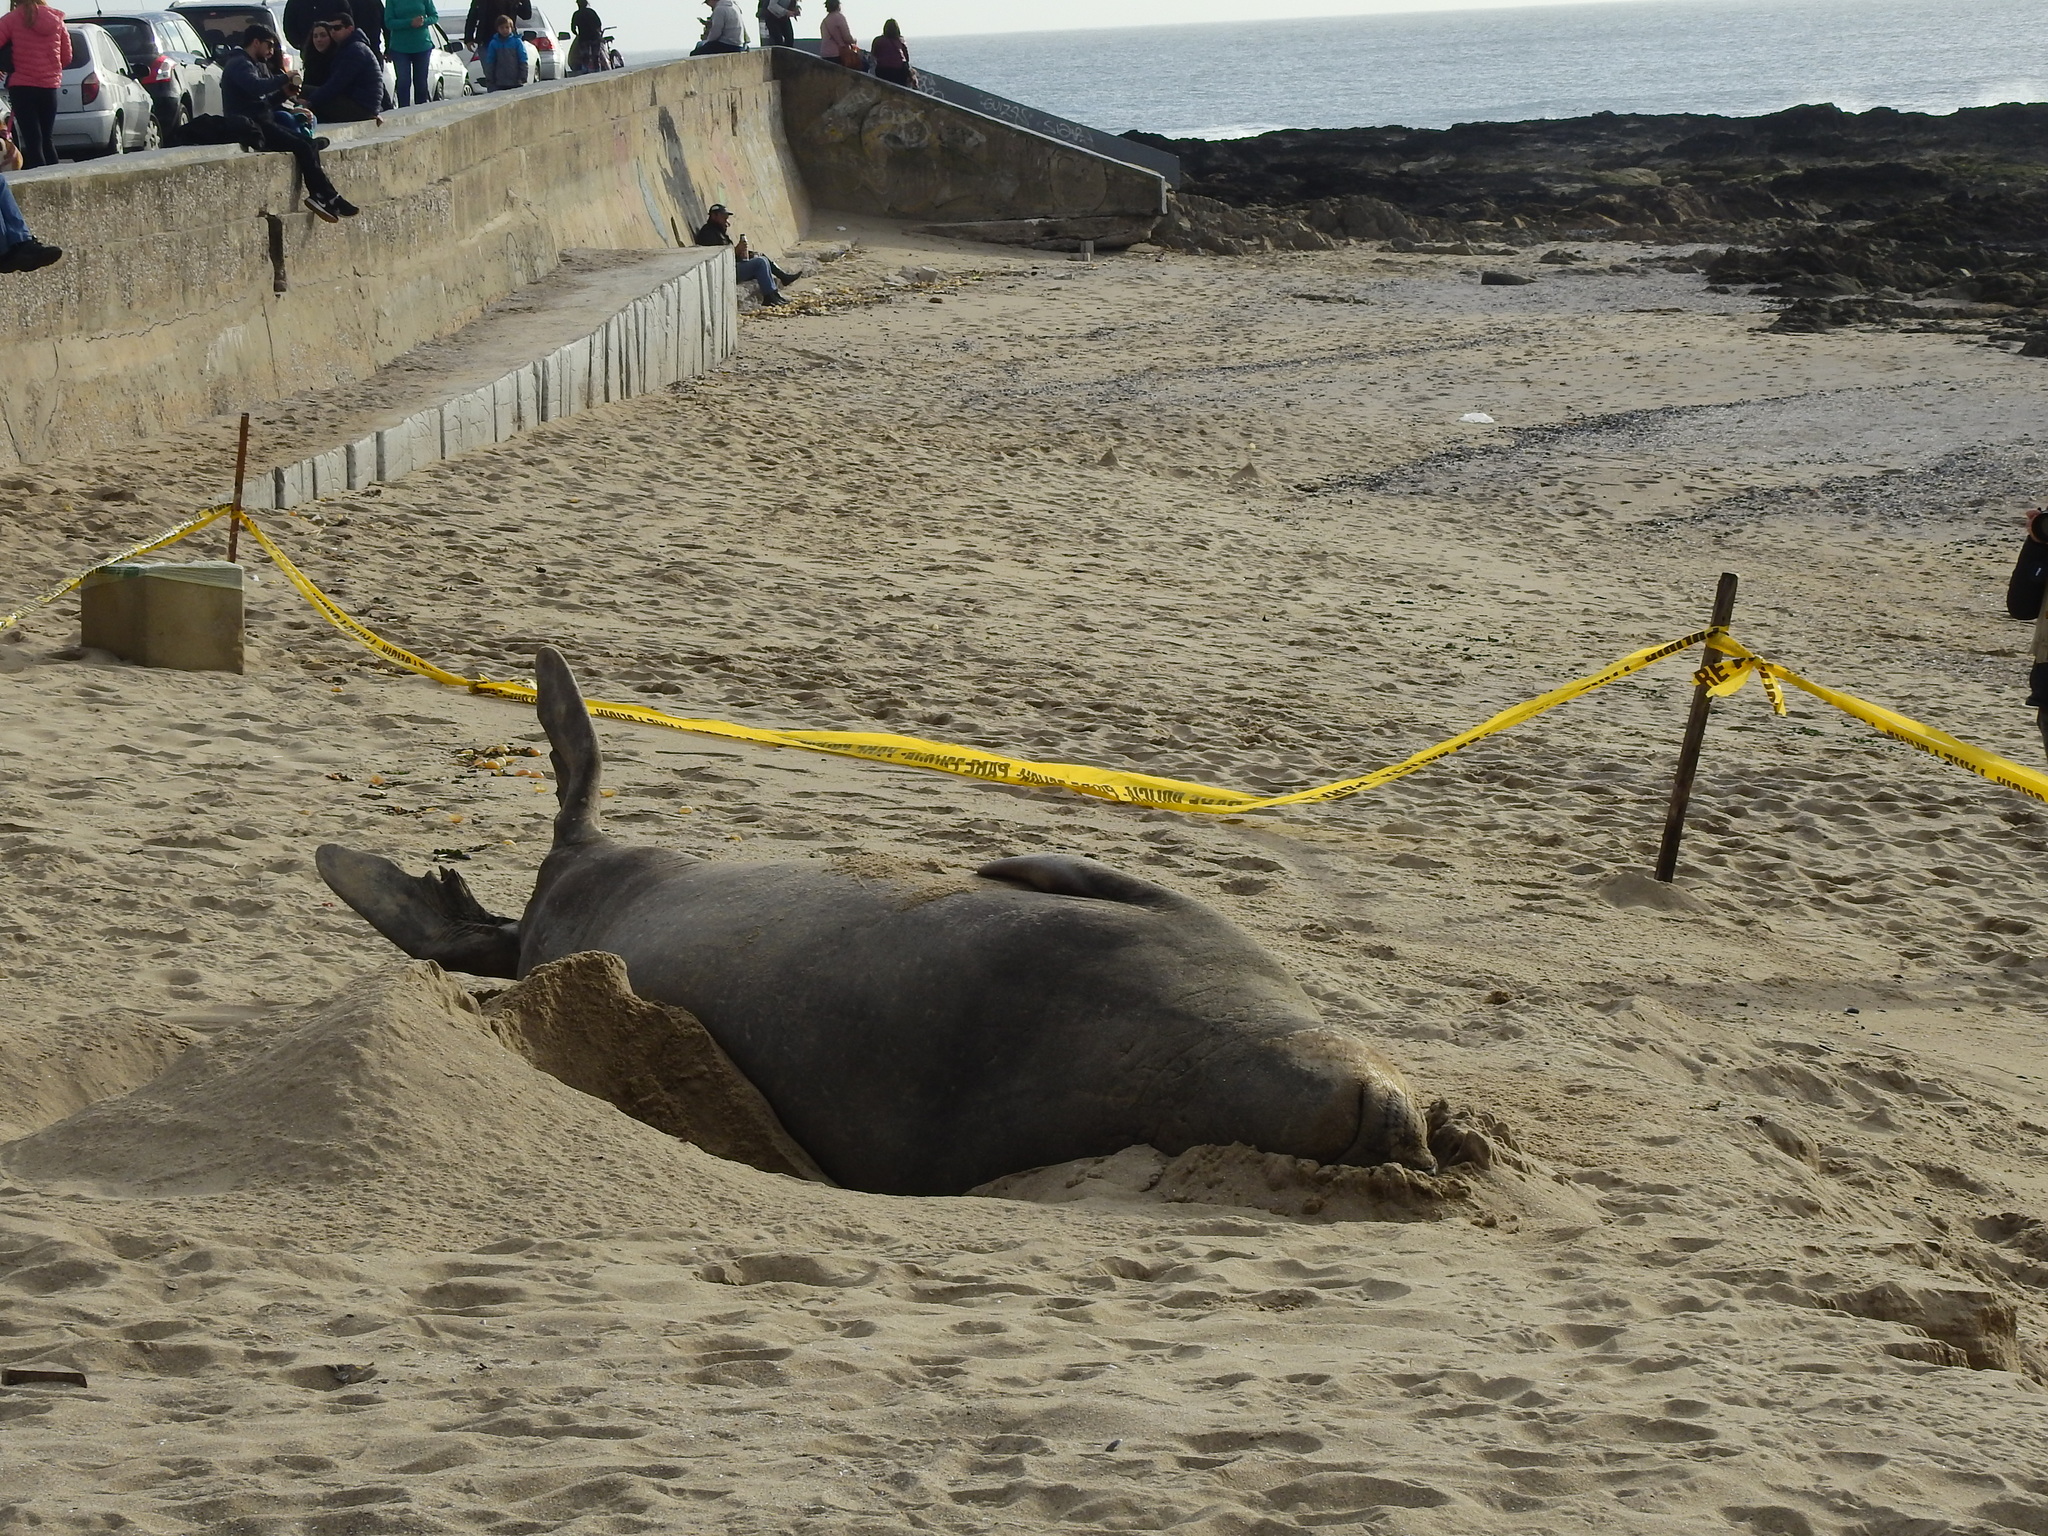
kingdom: Animalia
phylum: Chordata
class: Mammalia
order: Carnivora
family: Phocidae
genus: Mirounga
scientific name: Mirounga leonina
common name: Southern elephant seal
